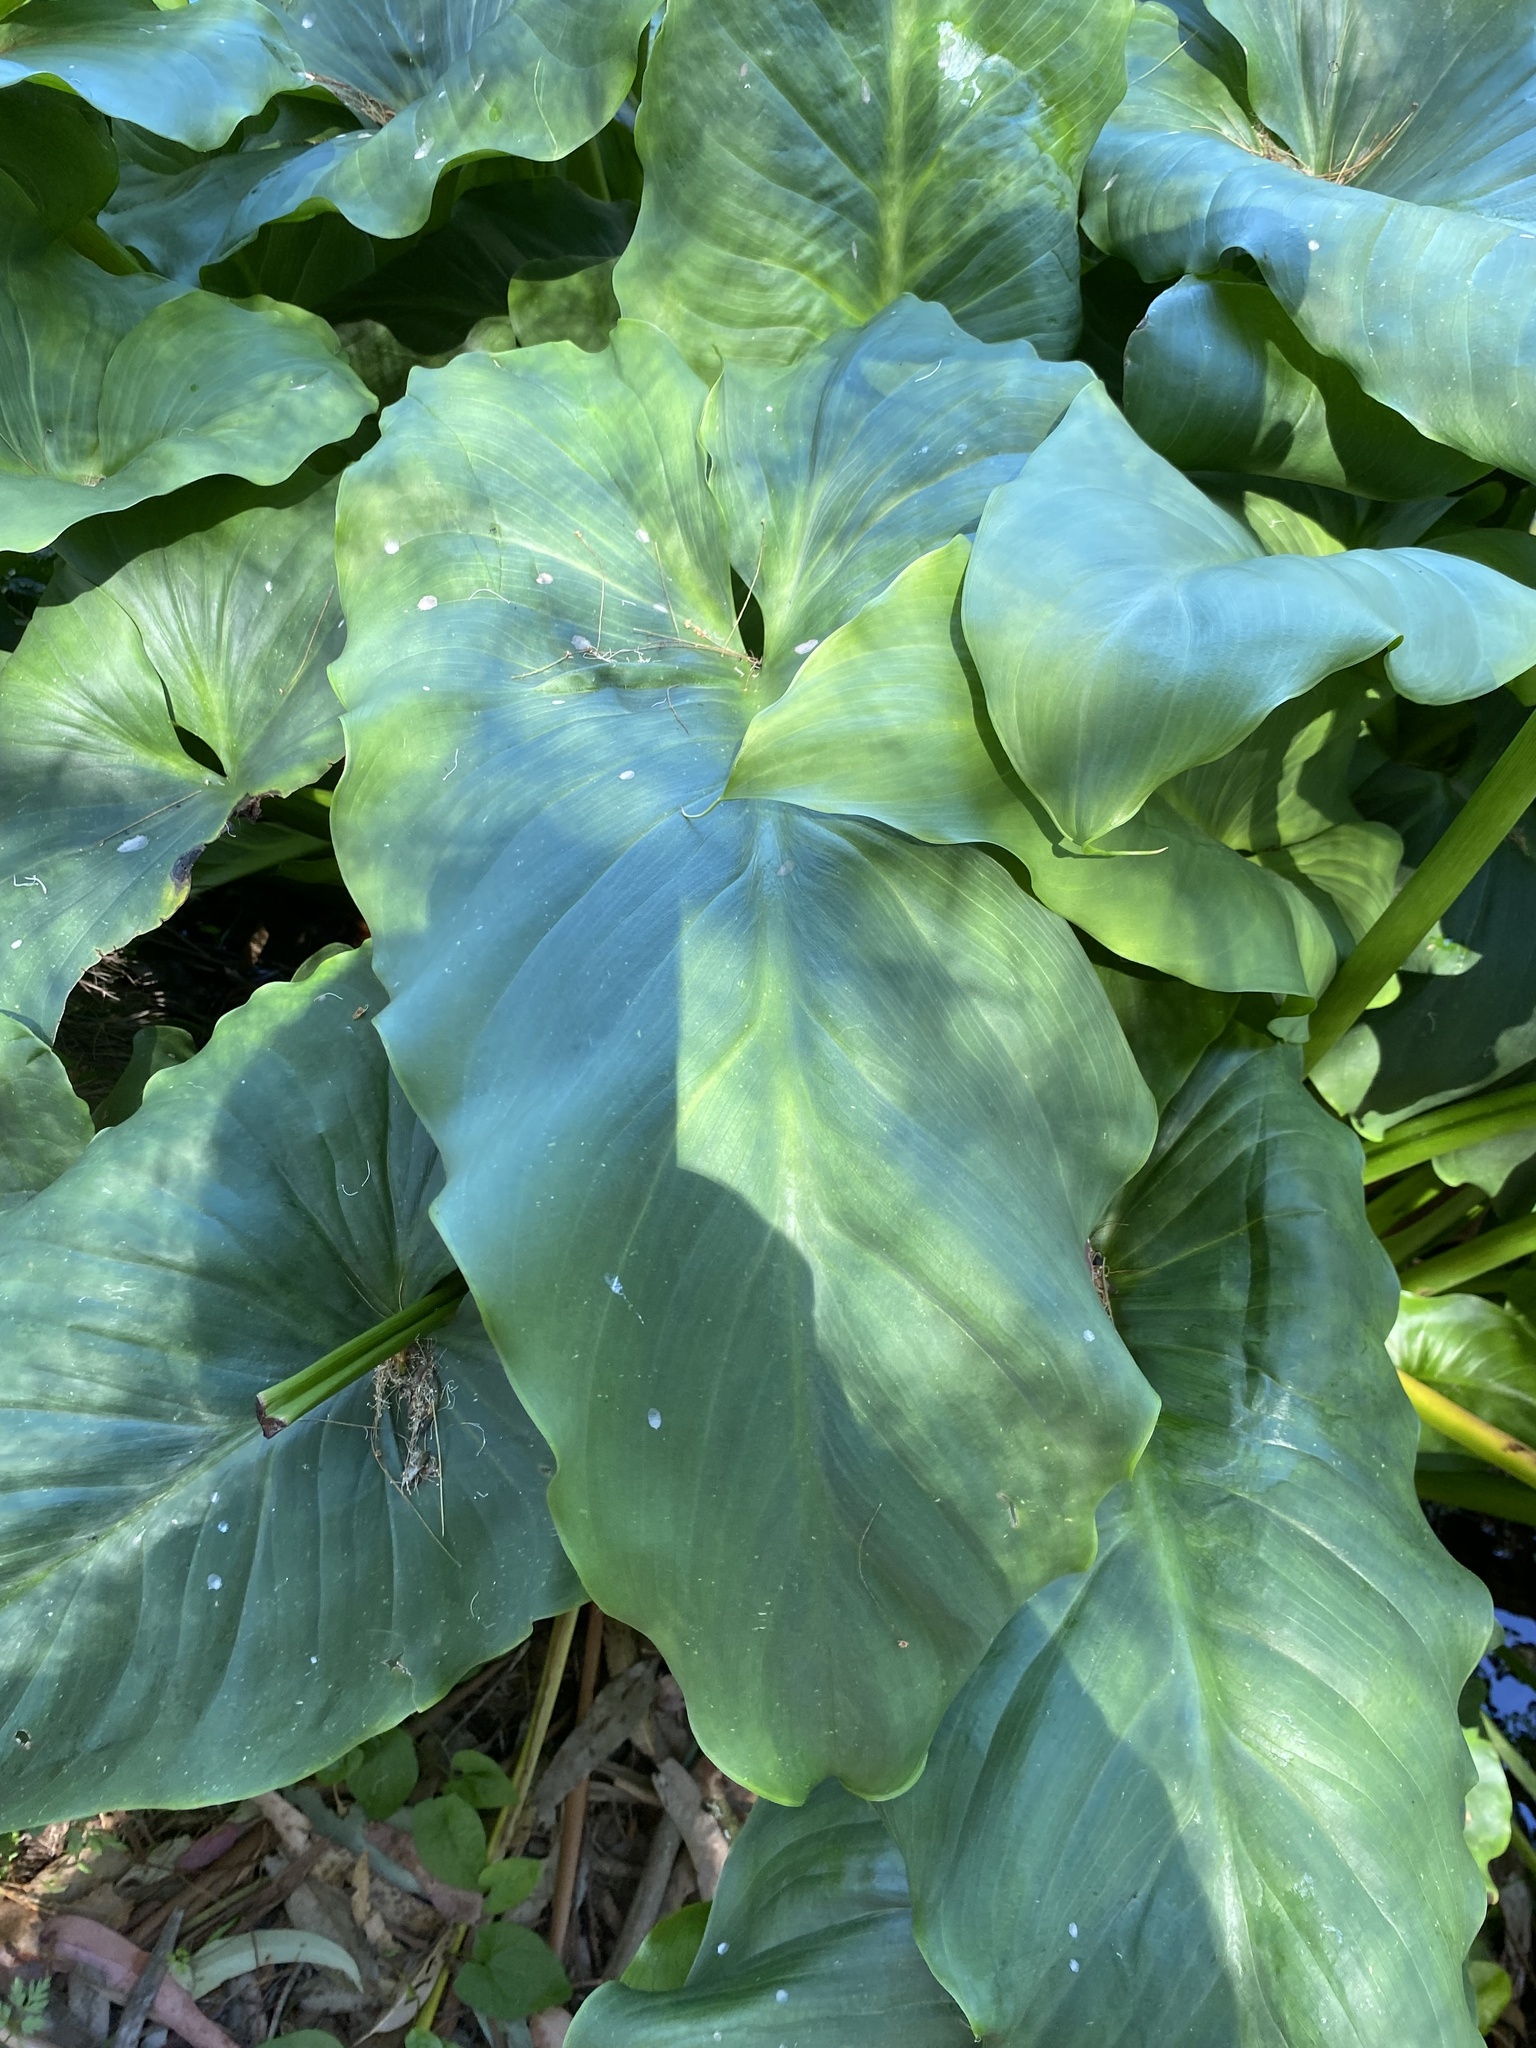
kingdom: Plantae
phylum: Tracheophyta
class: Liliopsida
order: Alismatales
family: Araceae
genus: Zantedeschia
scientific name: Zantedeschia aethiopica
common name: Altar-lily
